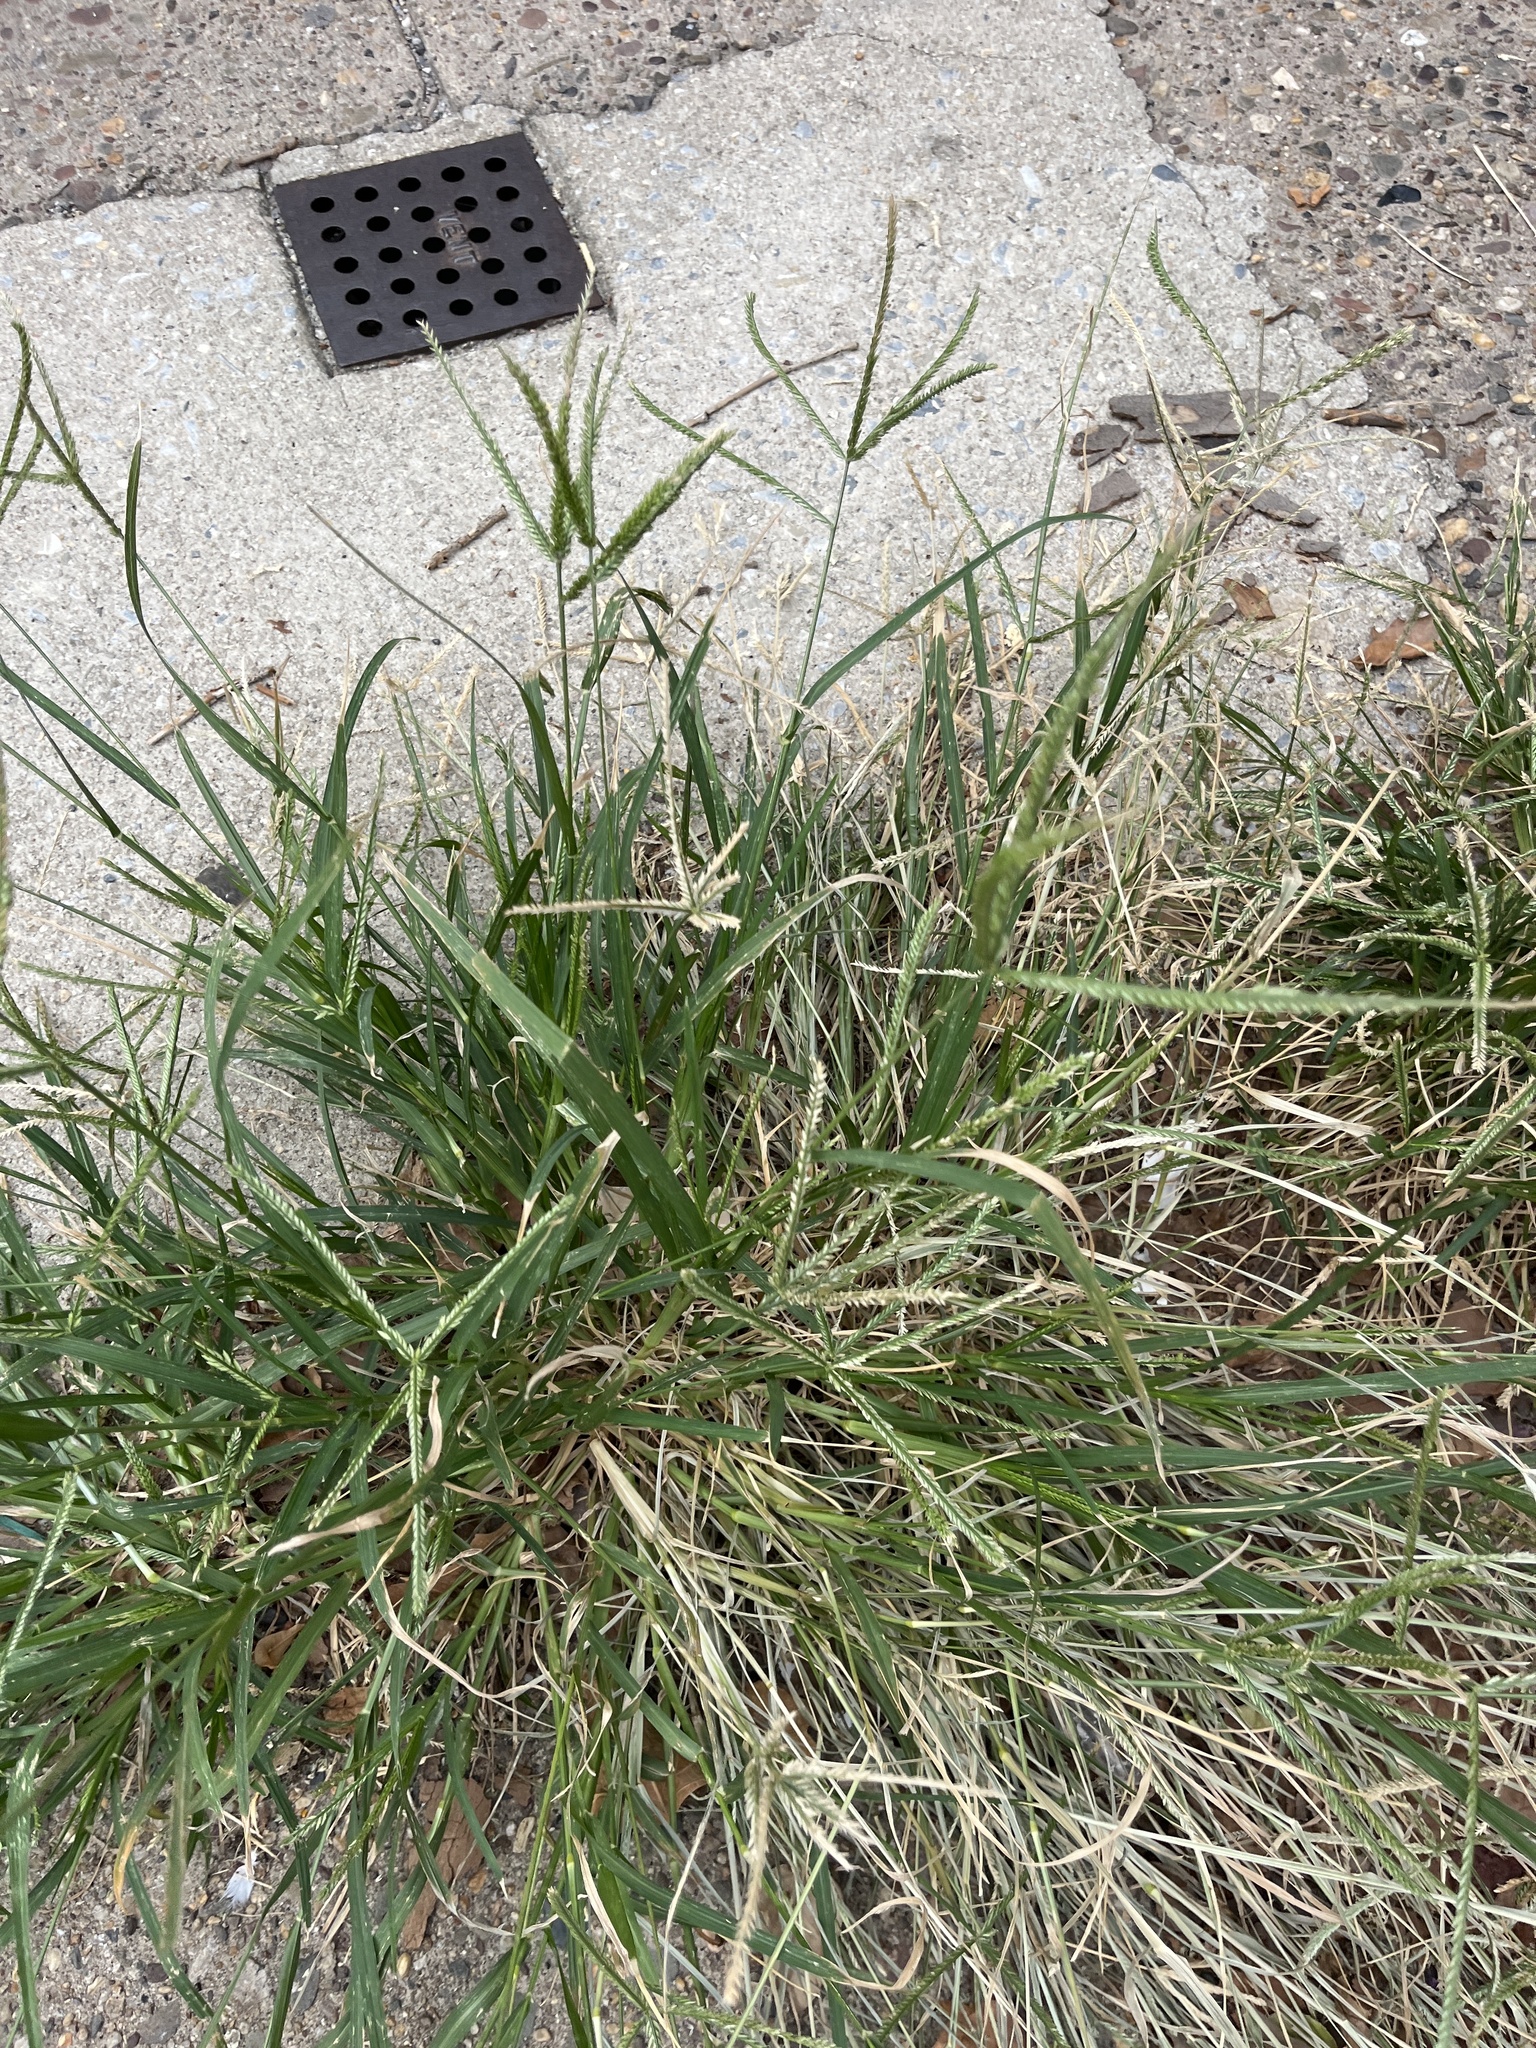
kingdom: Plantae
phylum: Tracheophyta
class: Liliopsida
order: Poales
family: Poaceae
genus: Eleusine
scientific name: Eleusine indica
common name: Yard-grass
